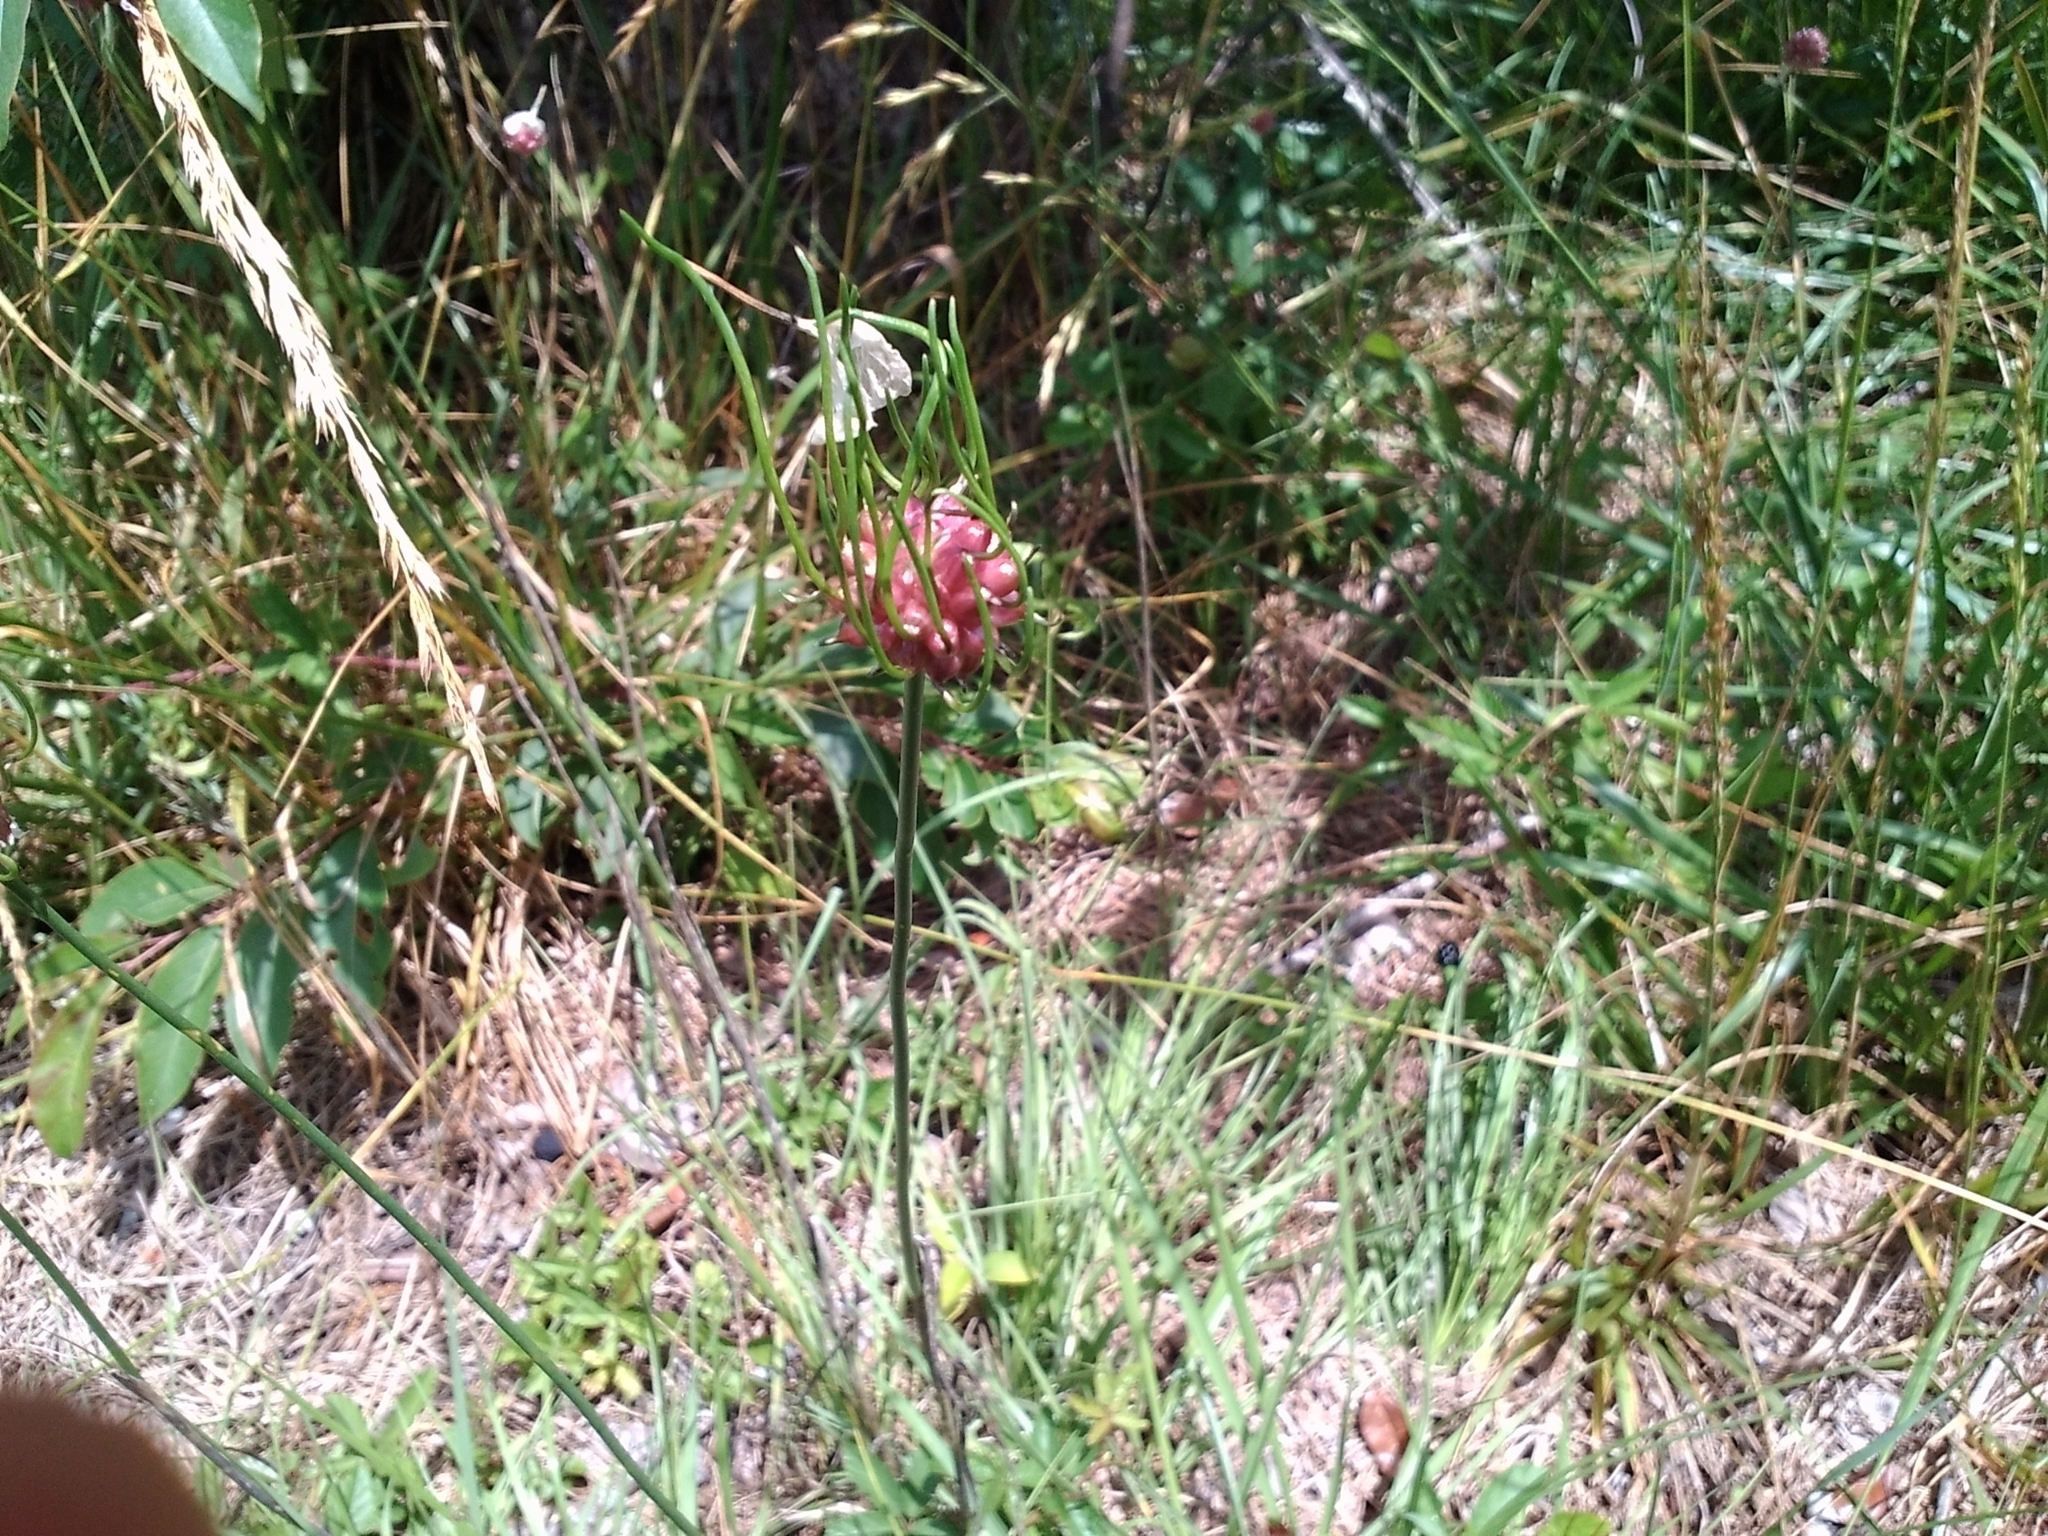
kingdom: Plantae
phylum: Tracheophyta
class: Liliopsida
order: Asparagales
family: Amaryllidaceae
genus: Allium
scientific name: Allium vineale
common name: Crow garlic
